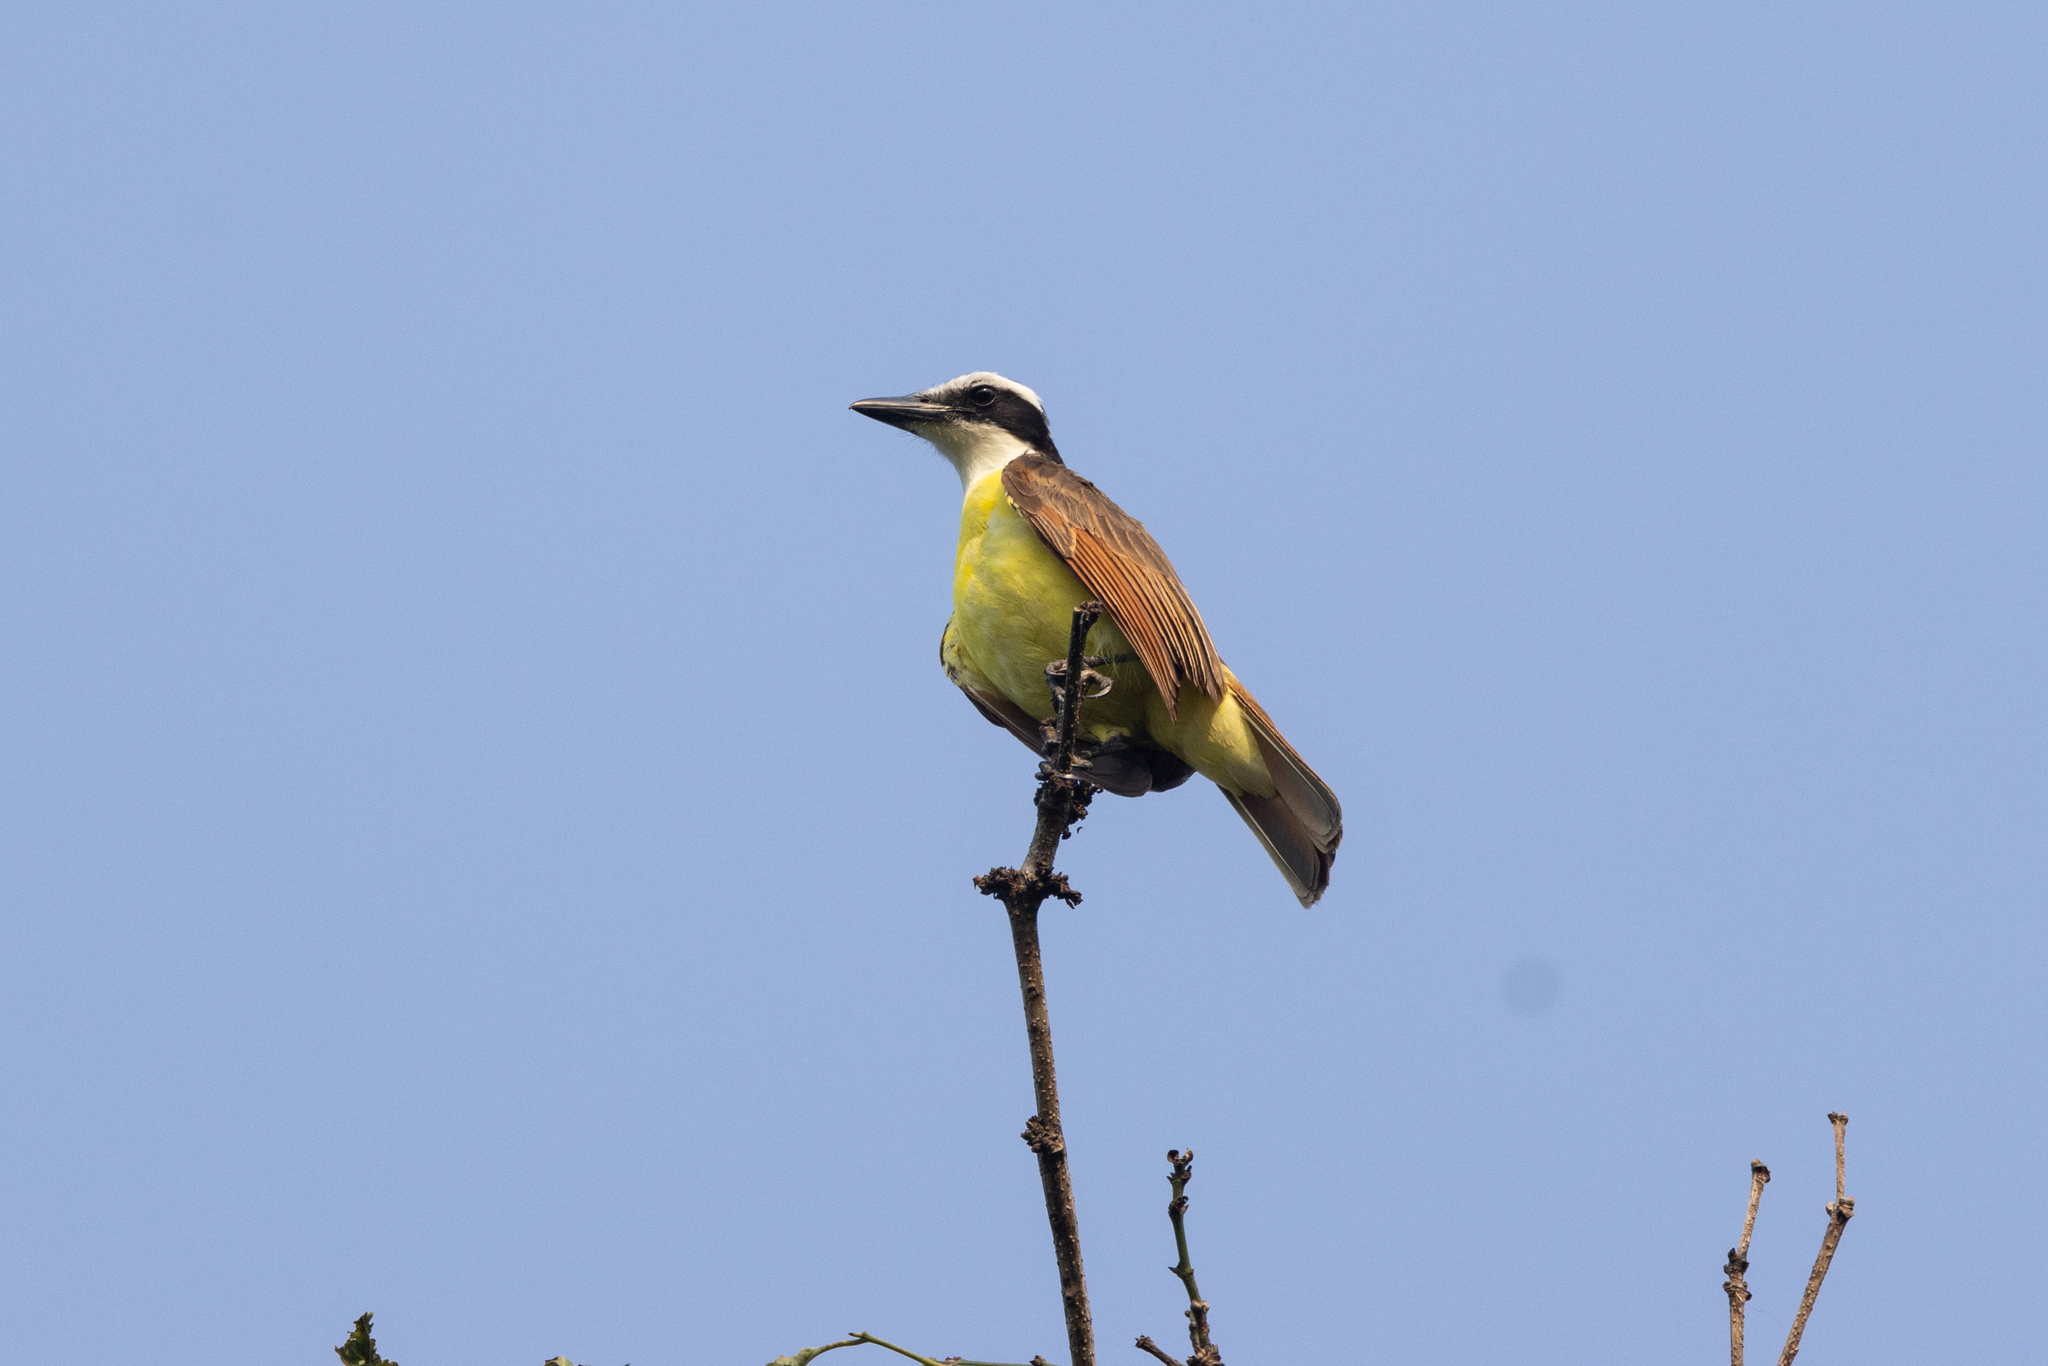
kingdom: Animalia
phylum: Chordata
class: Aves
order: Passeriformes
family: Tyrannidae
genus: Pitangus
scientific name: Pitangus sulphuratus
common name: Great kiskadee
